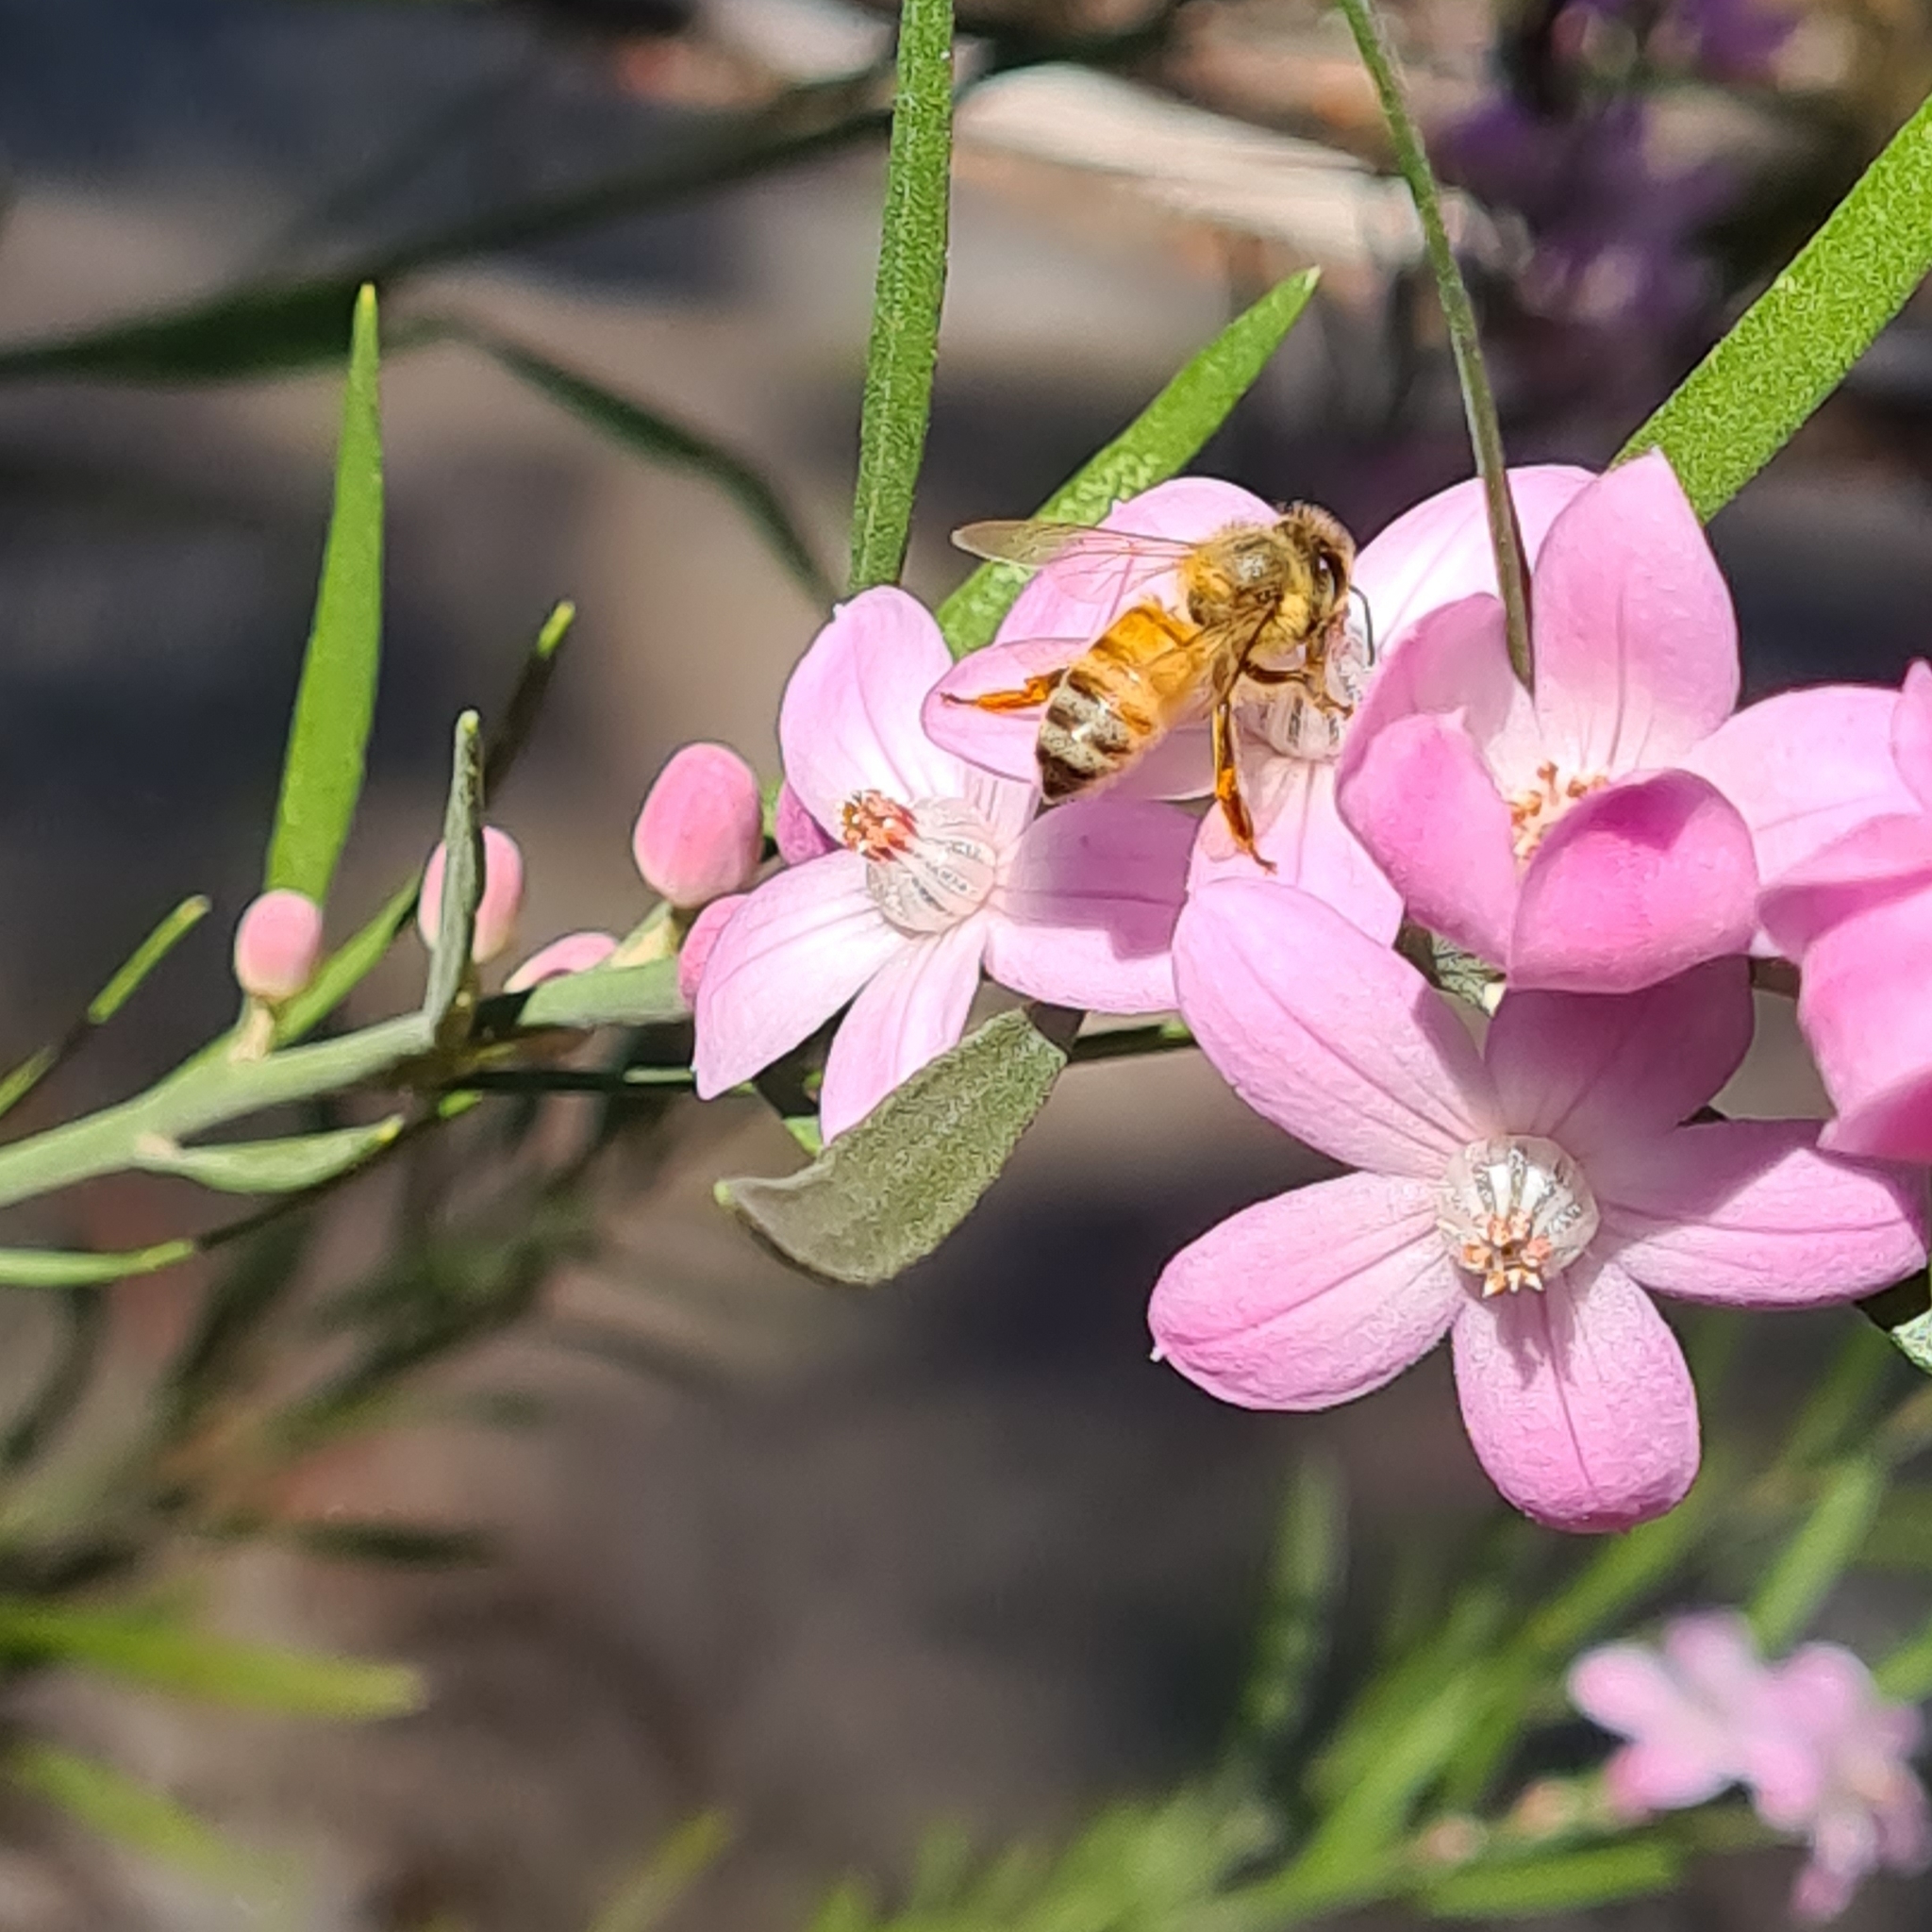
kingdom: Animalia
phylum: Arthropoda
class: Insecta
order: Hymenoptera
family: Apidae
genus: Apis
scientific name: Apis mellifera
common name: Honey bee
